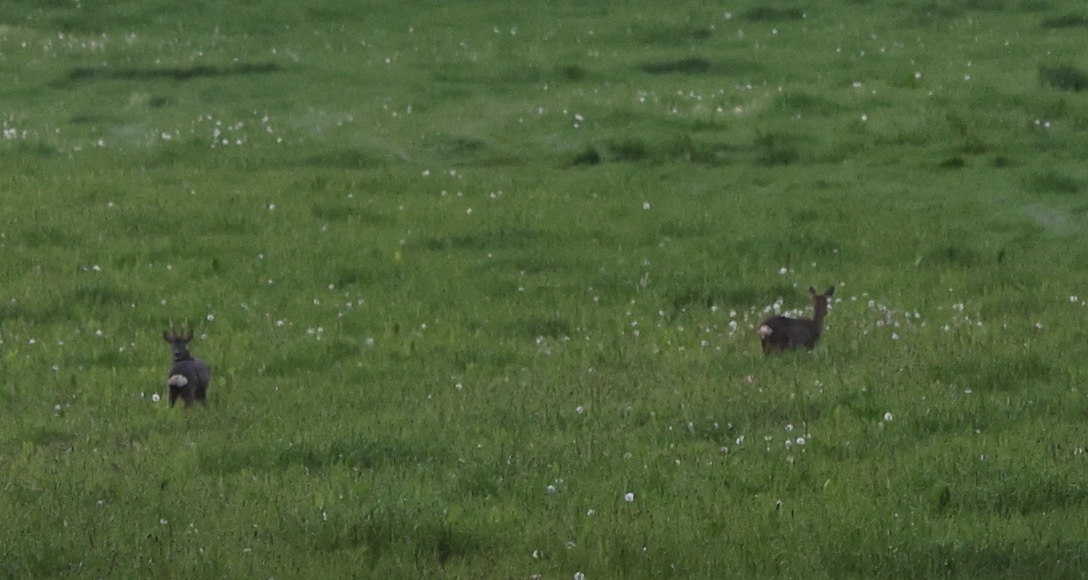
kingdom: Animalia
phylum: Chordata
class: Mammalia
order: Artiodactyla
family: Cervidae
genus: Capreolus
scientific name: Capreolus capreolus
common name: Western roe deer
